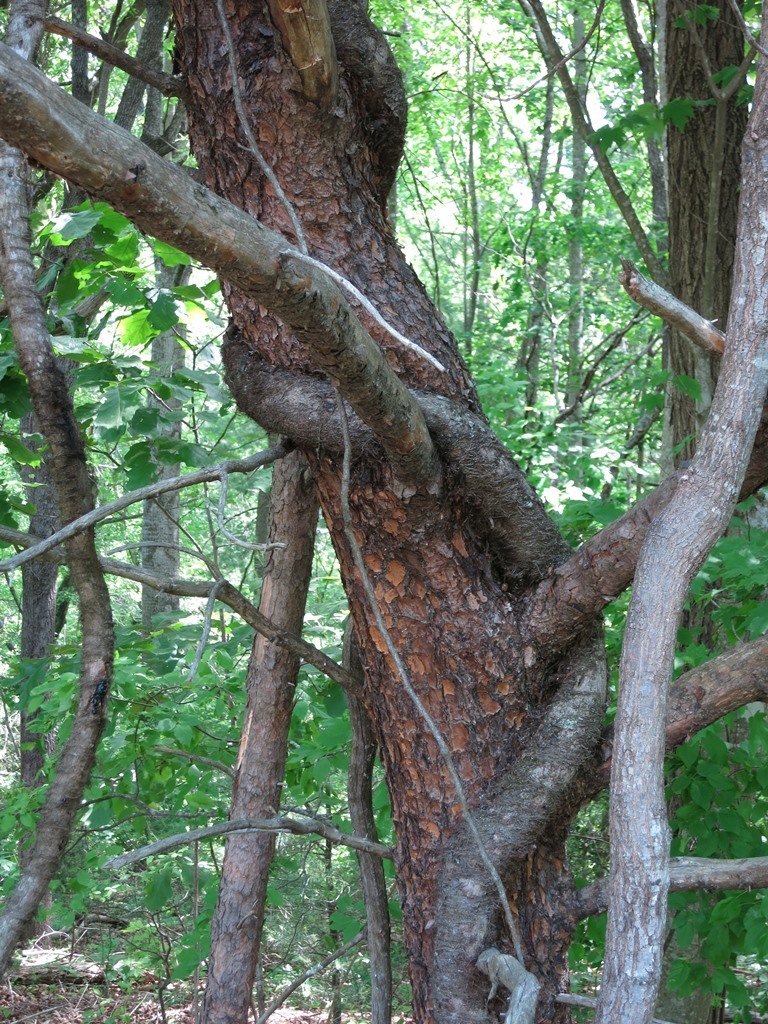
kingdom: Plantae
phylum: Tracheophyta
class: Magnoliopsida
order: Sapindales
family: Anacardiaceae
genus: Toxicodendron
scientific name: Toxicodendron radicans
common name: Poison ivy
